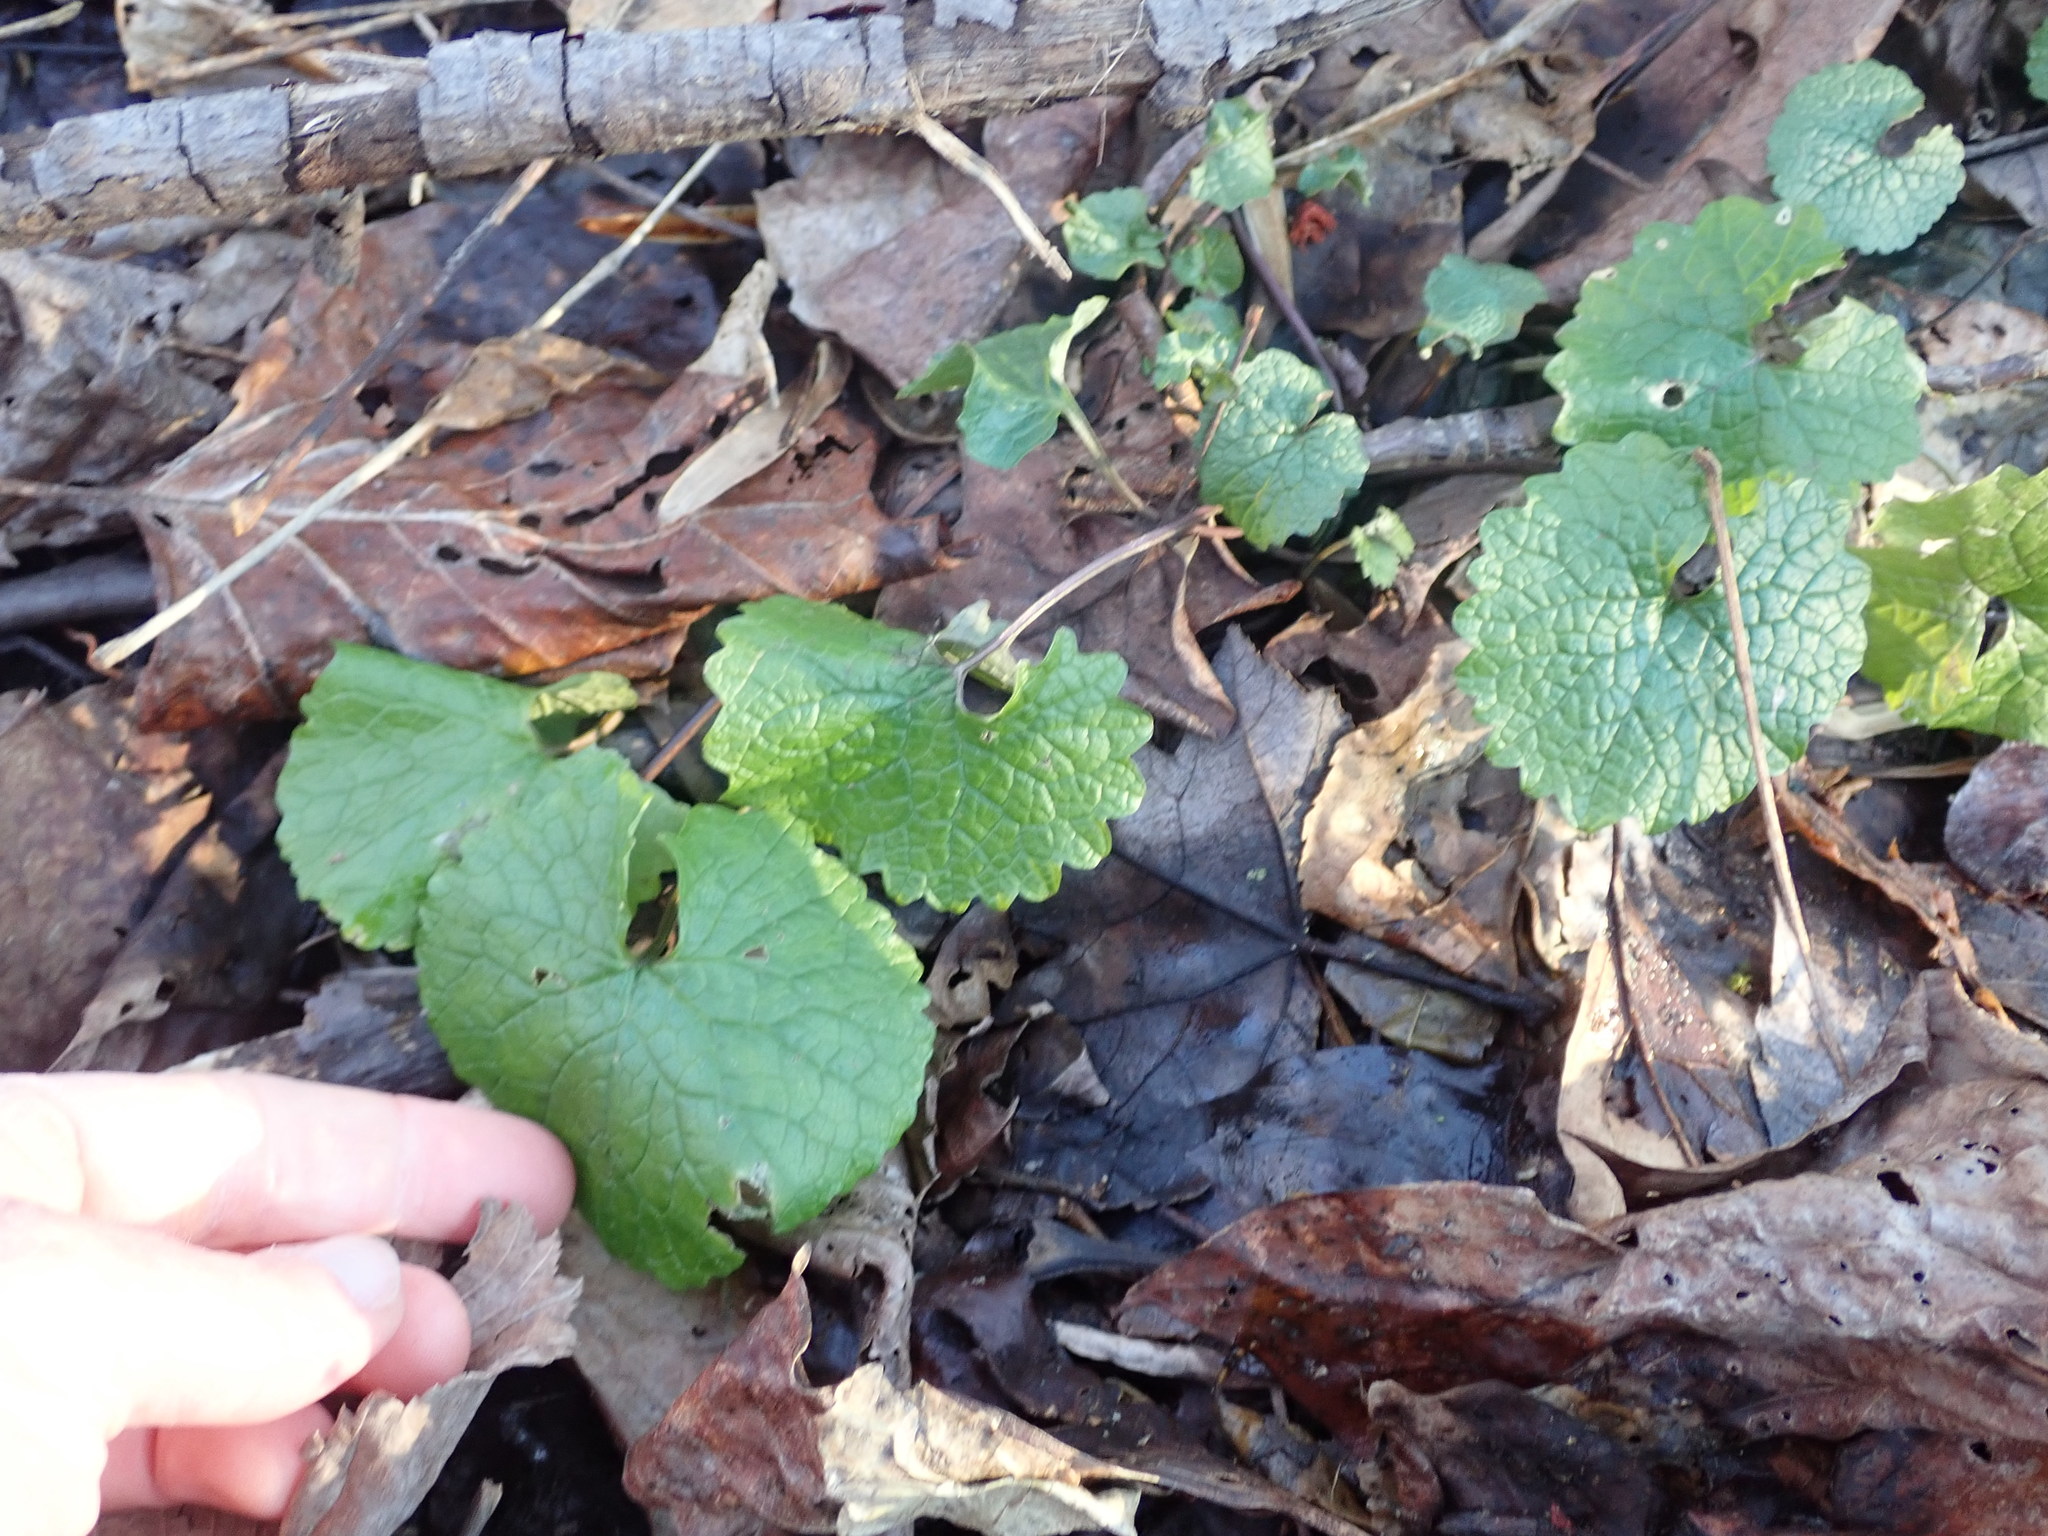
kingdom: Plantae
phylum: Tracheophyta
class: Magnoliopsida
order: Brassicales
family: Brassicaceae
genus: Alliaria
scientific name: Alliaria petiolata
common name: Garlic mustard
